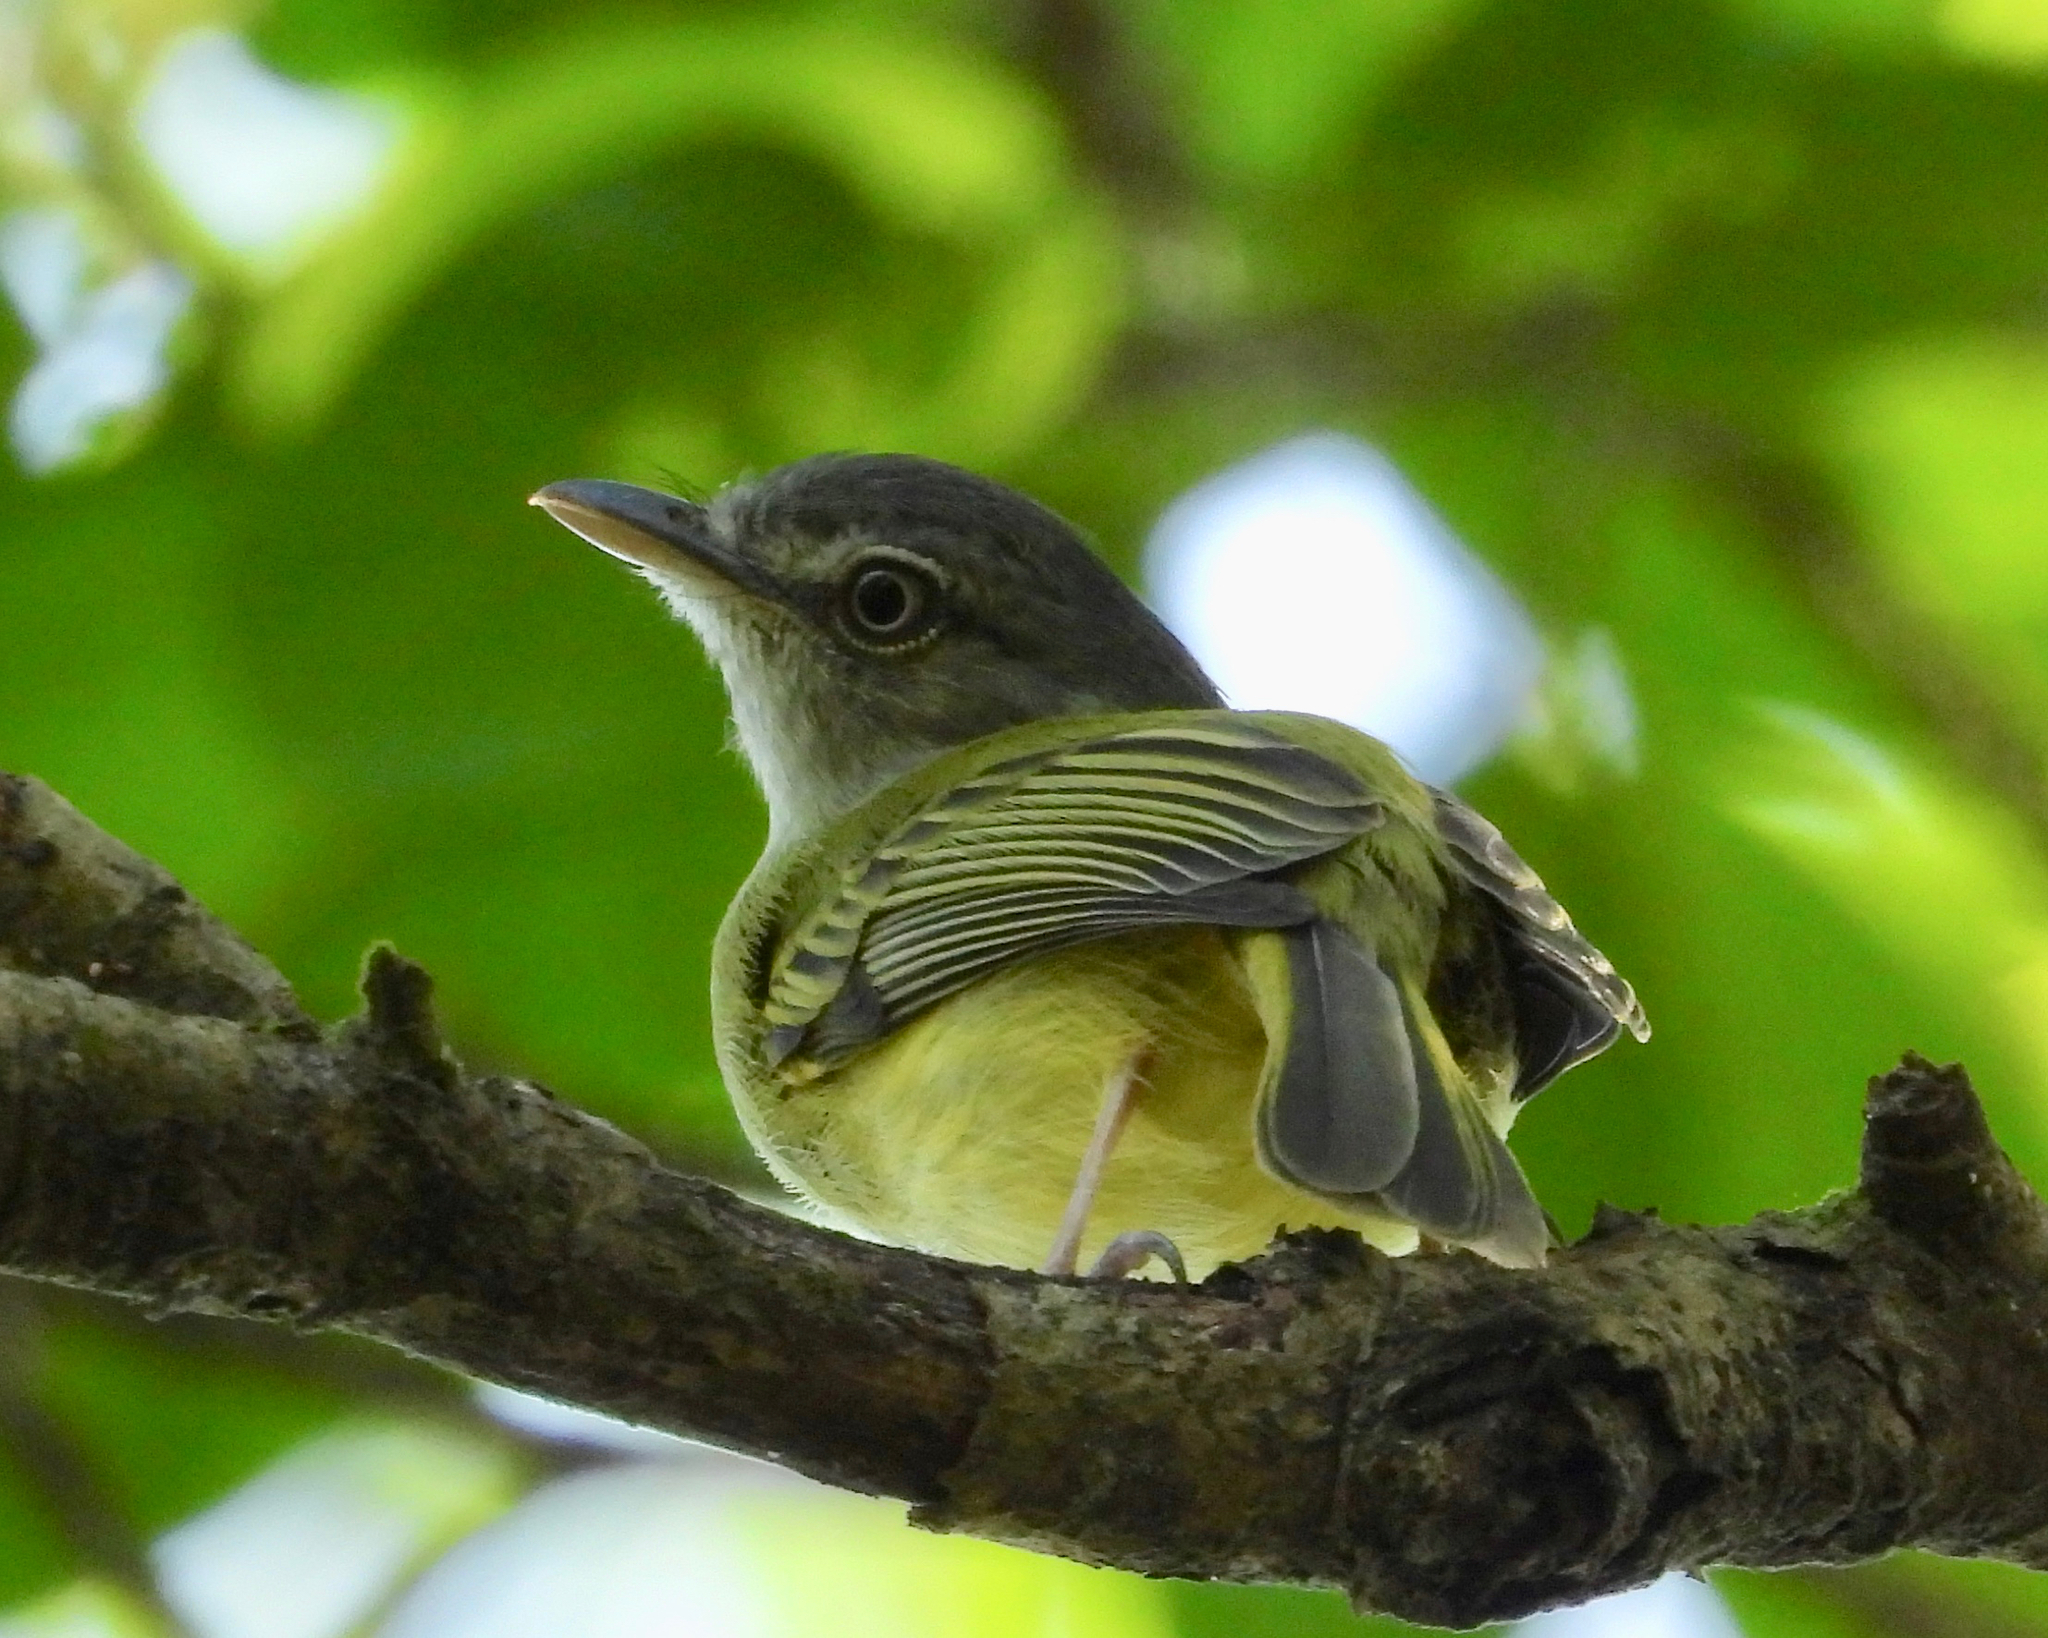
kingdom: Animalia
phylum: Chordata
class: Aves
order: Passeriformes
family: Tyrannidae
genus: Tolmomyias
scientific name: Tolmomyias sulphurescens
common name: Yellow-olive flycatcher
